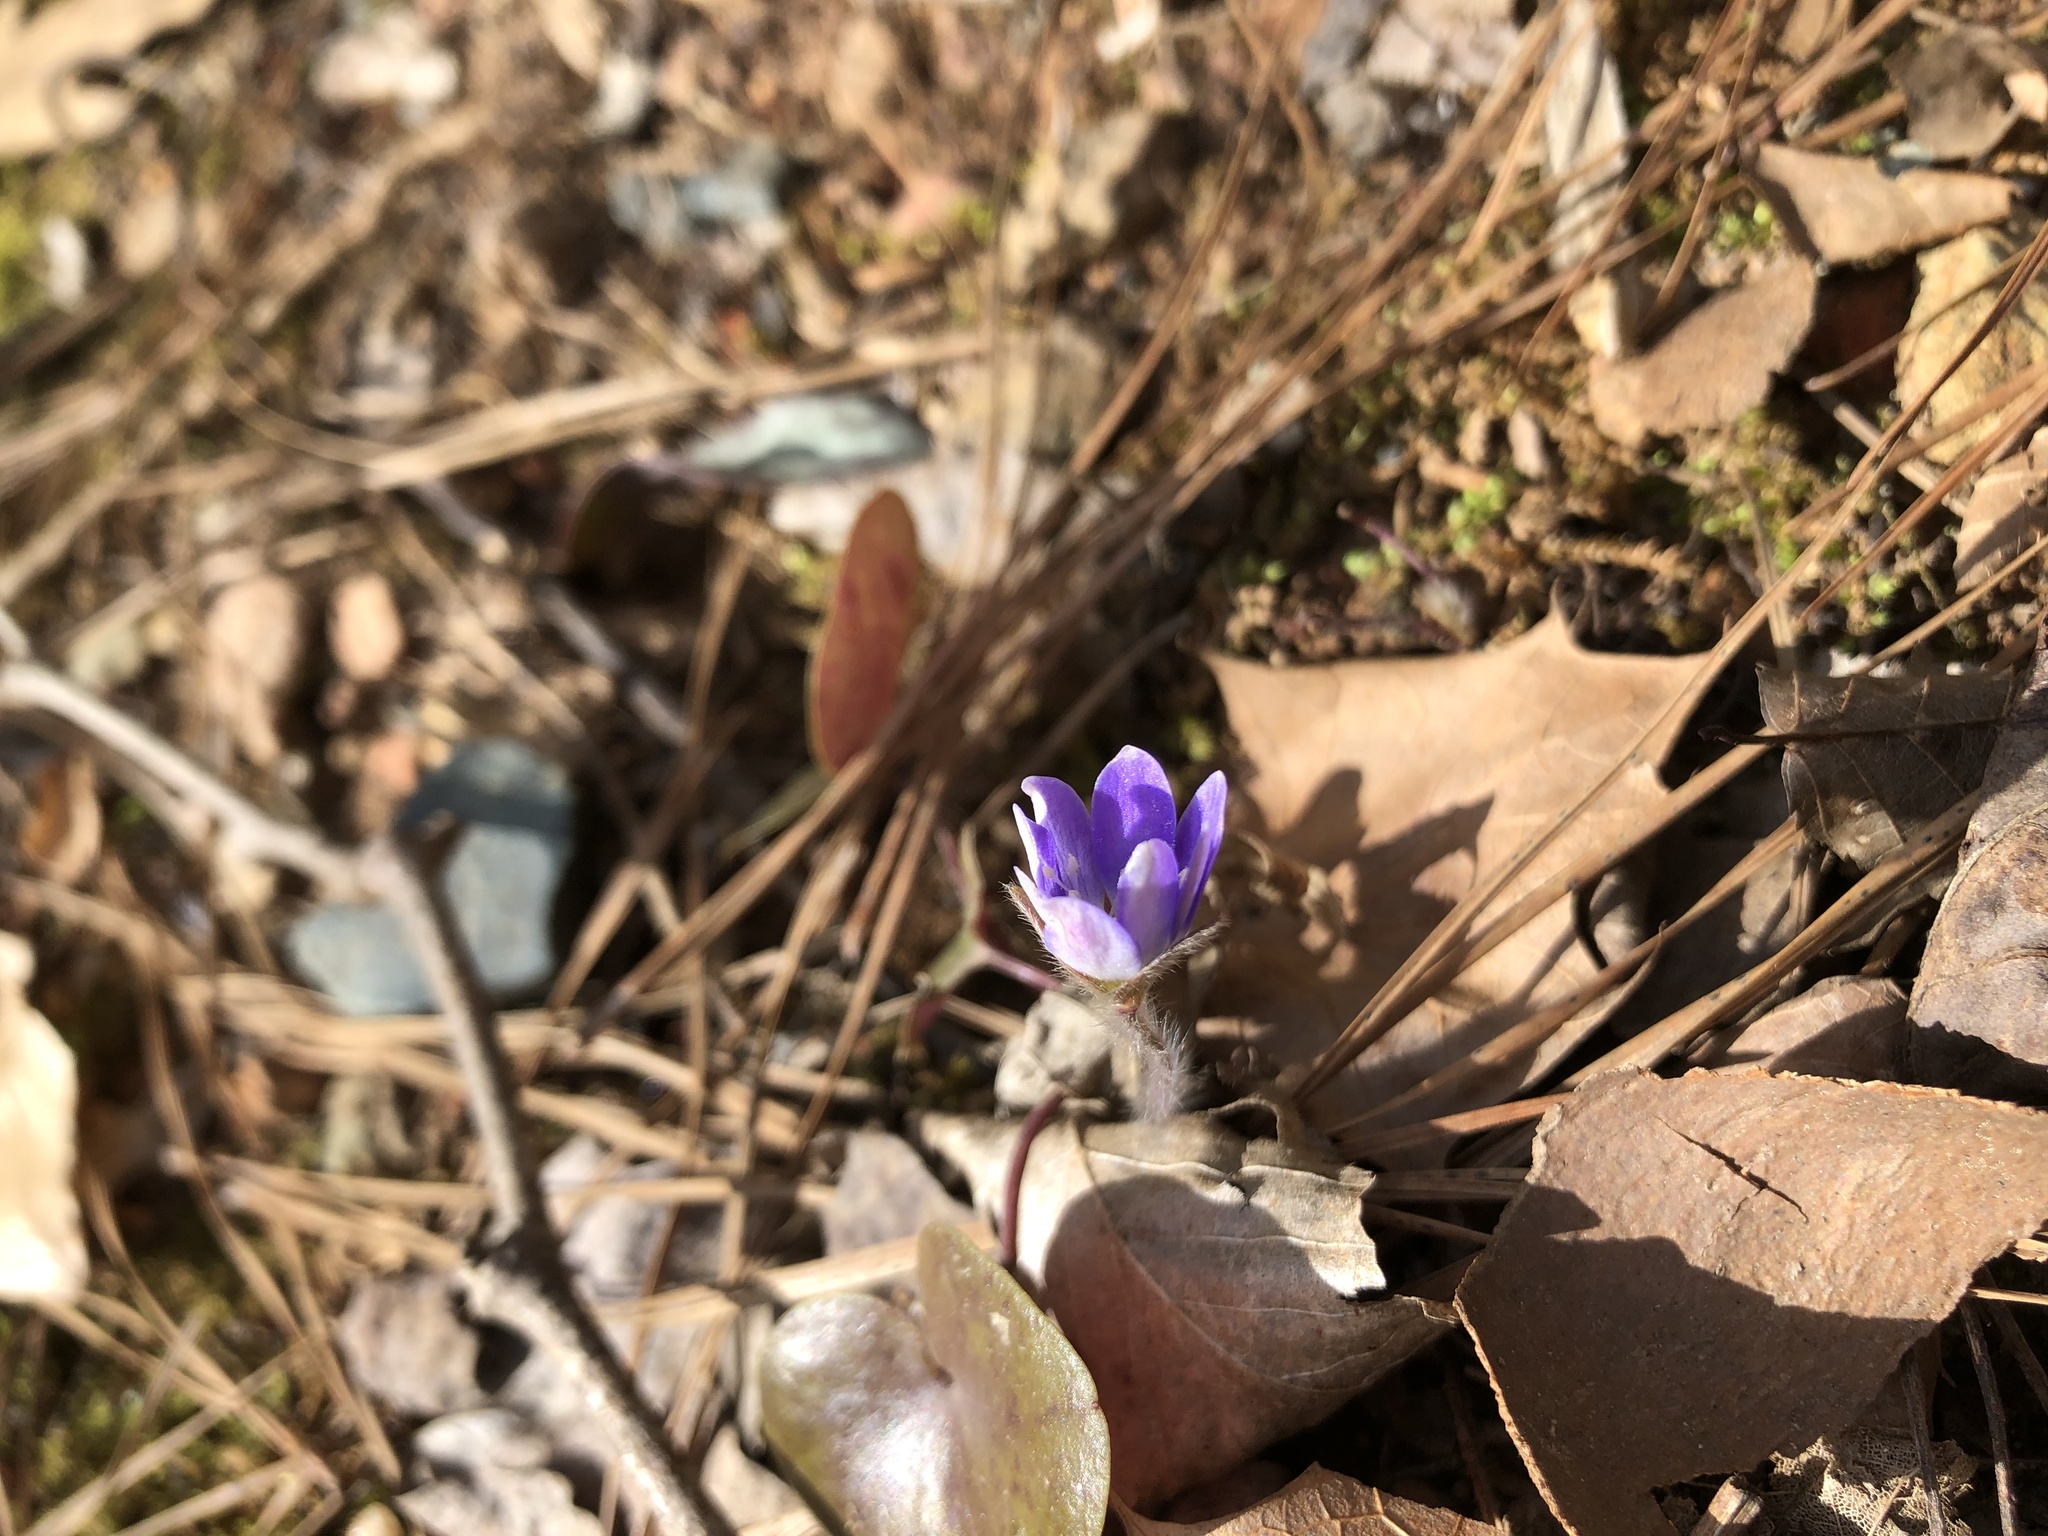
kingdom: Plantae
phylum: Tracheophyta
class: Magnoliopsida
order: Ranunculales
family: Ranunculaceae
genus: Hepatica
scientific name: Hepatica americana
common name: American hepatica
